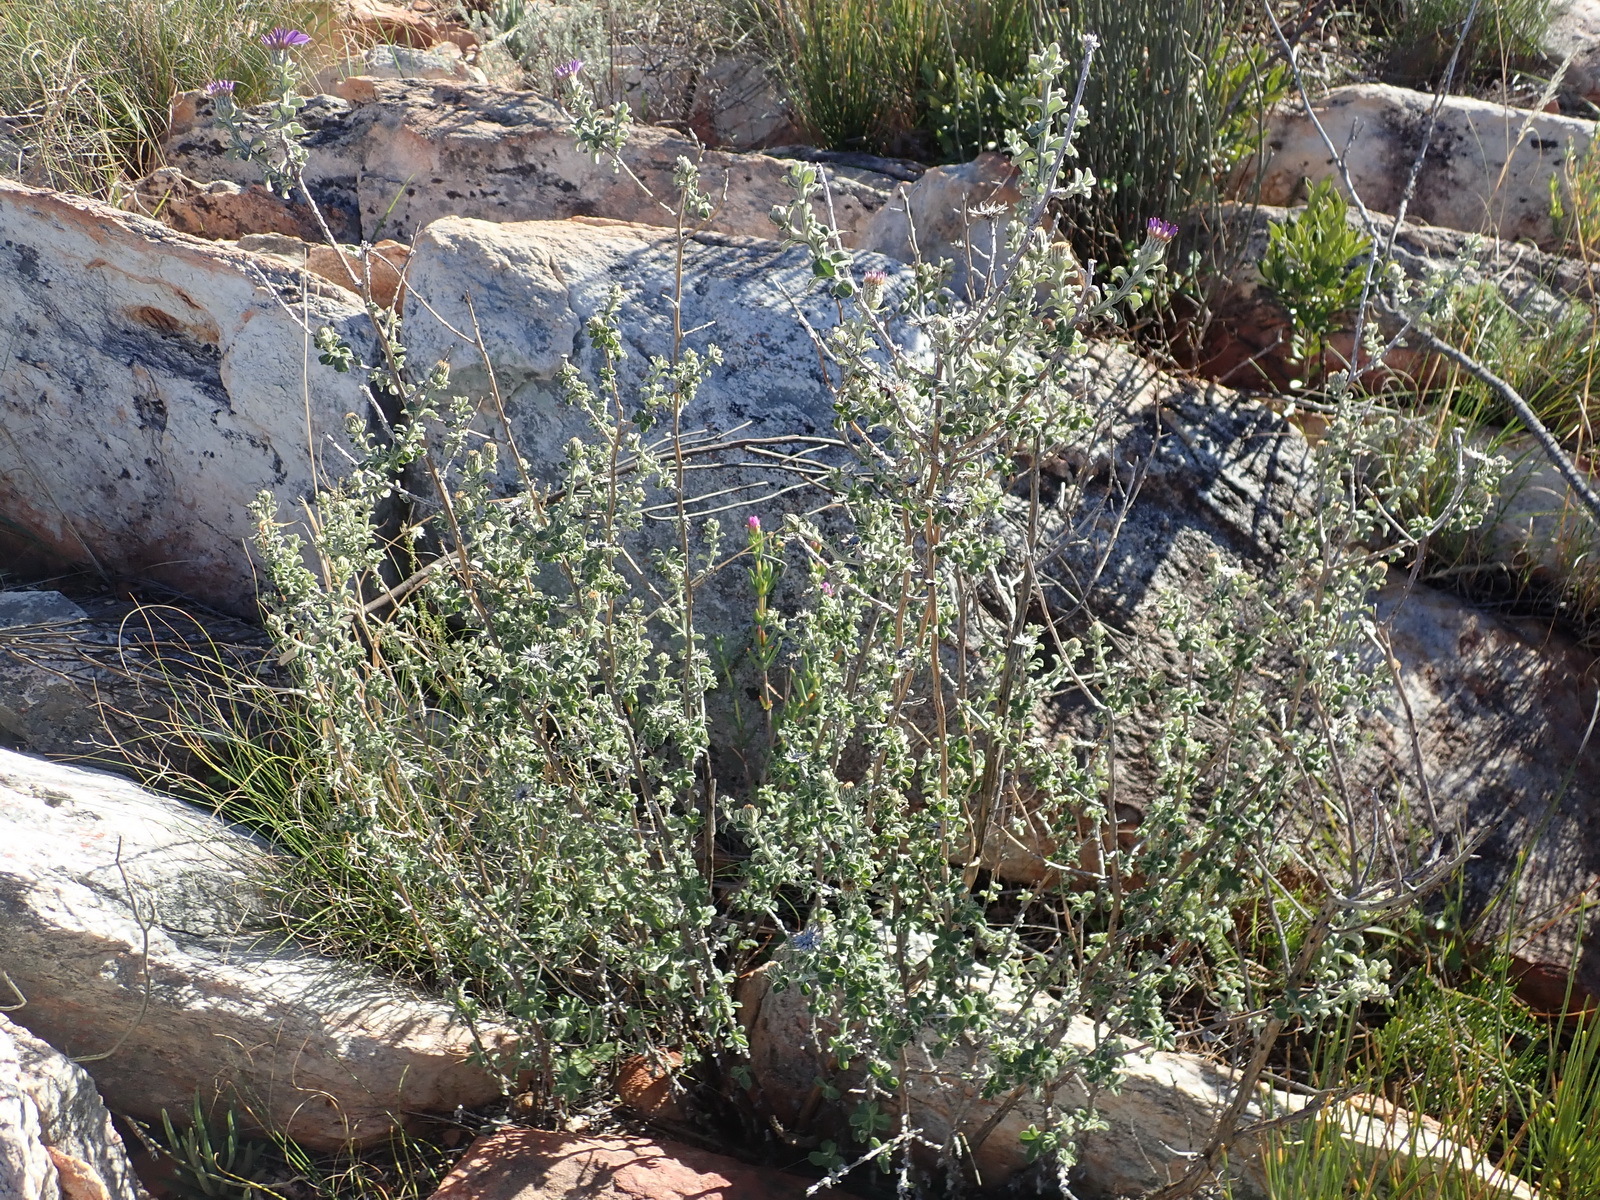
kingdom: Plantae
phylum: Tracheophyta
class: Magnoliopsida
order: Asterales
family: Asteraceae
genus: Printzia
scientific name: Printzia polifolia
